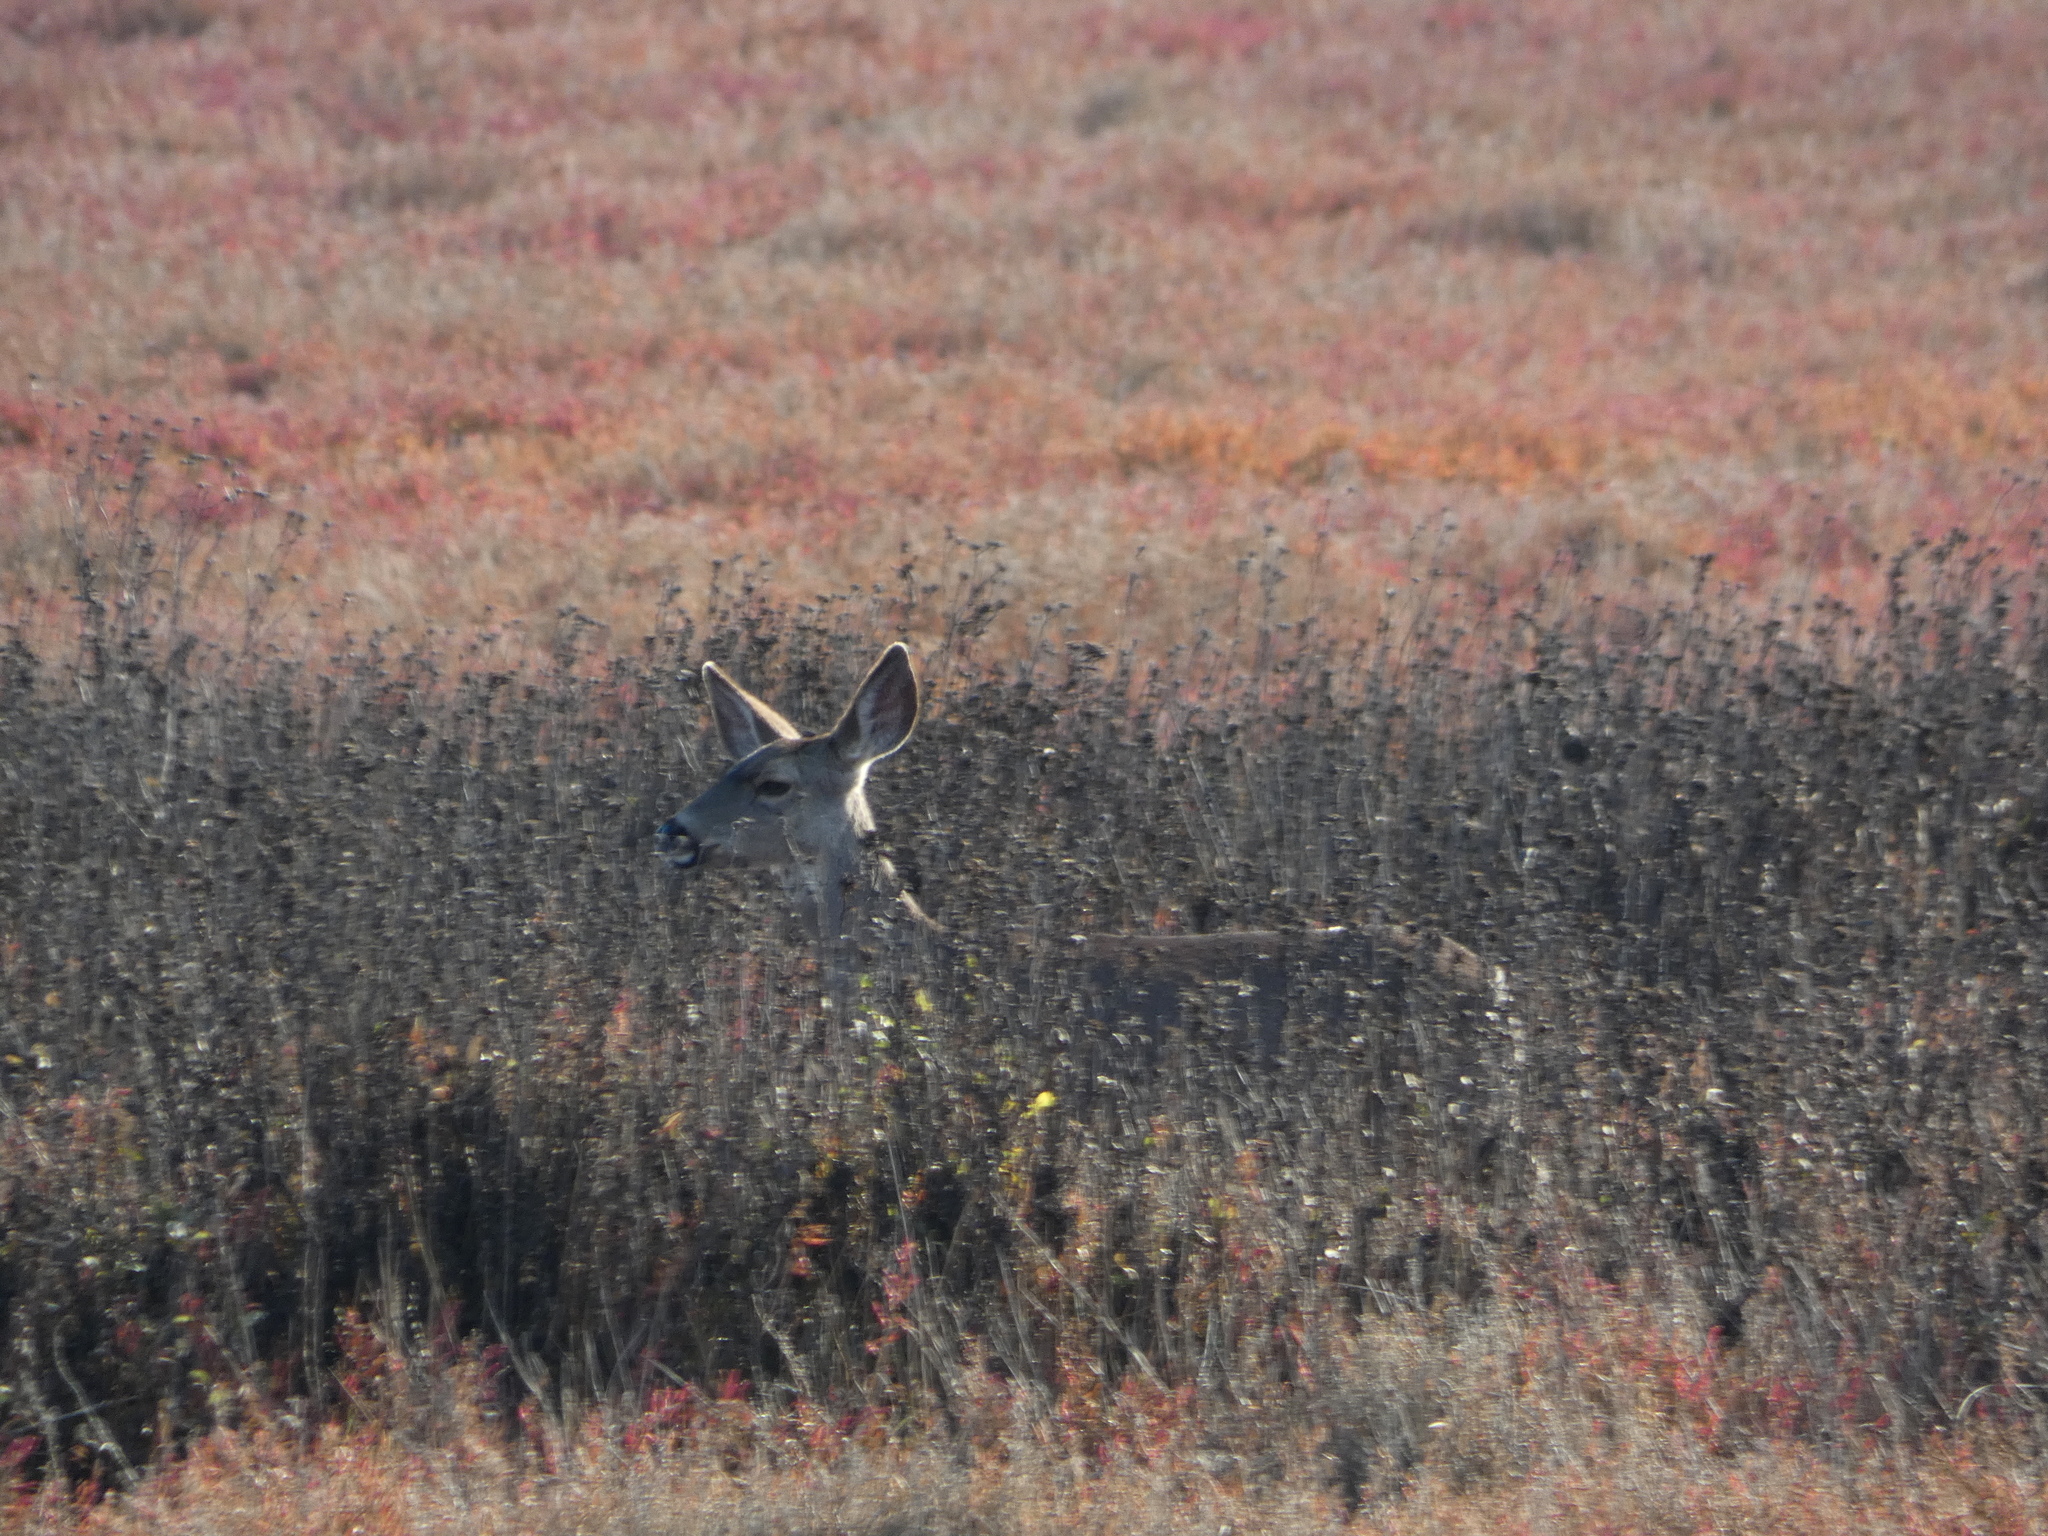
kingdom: Animalia
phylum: Chordata
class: Mammalia
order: Artiodactyla
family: Cervidae
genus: Odocoileus
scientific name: Odocoileus hemionus
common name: Mule deer
